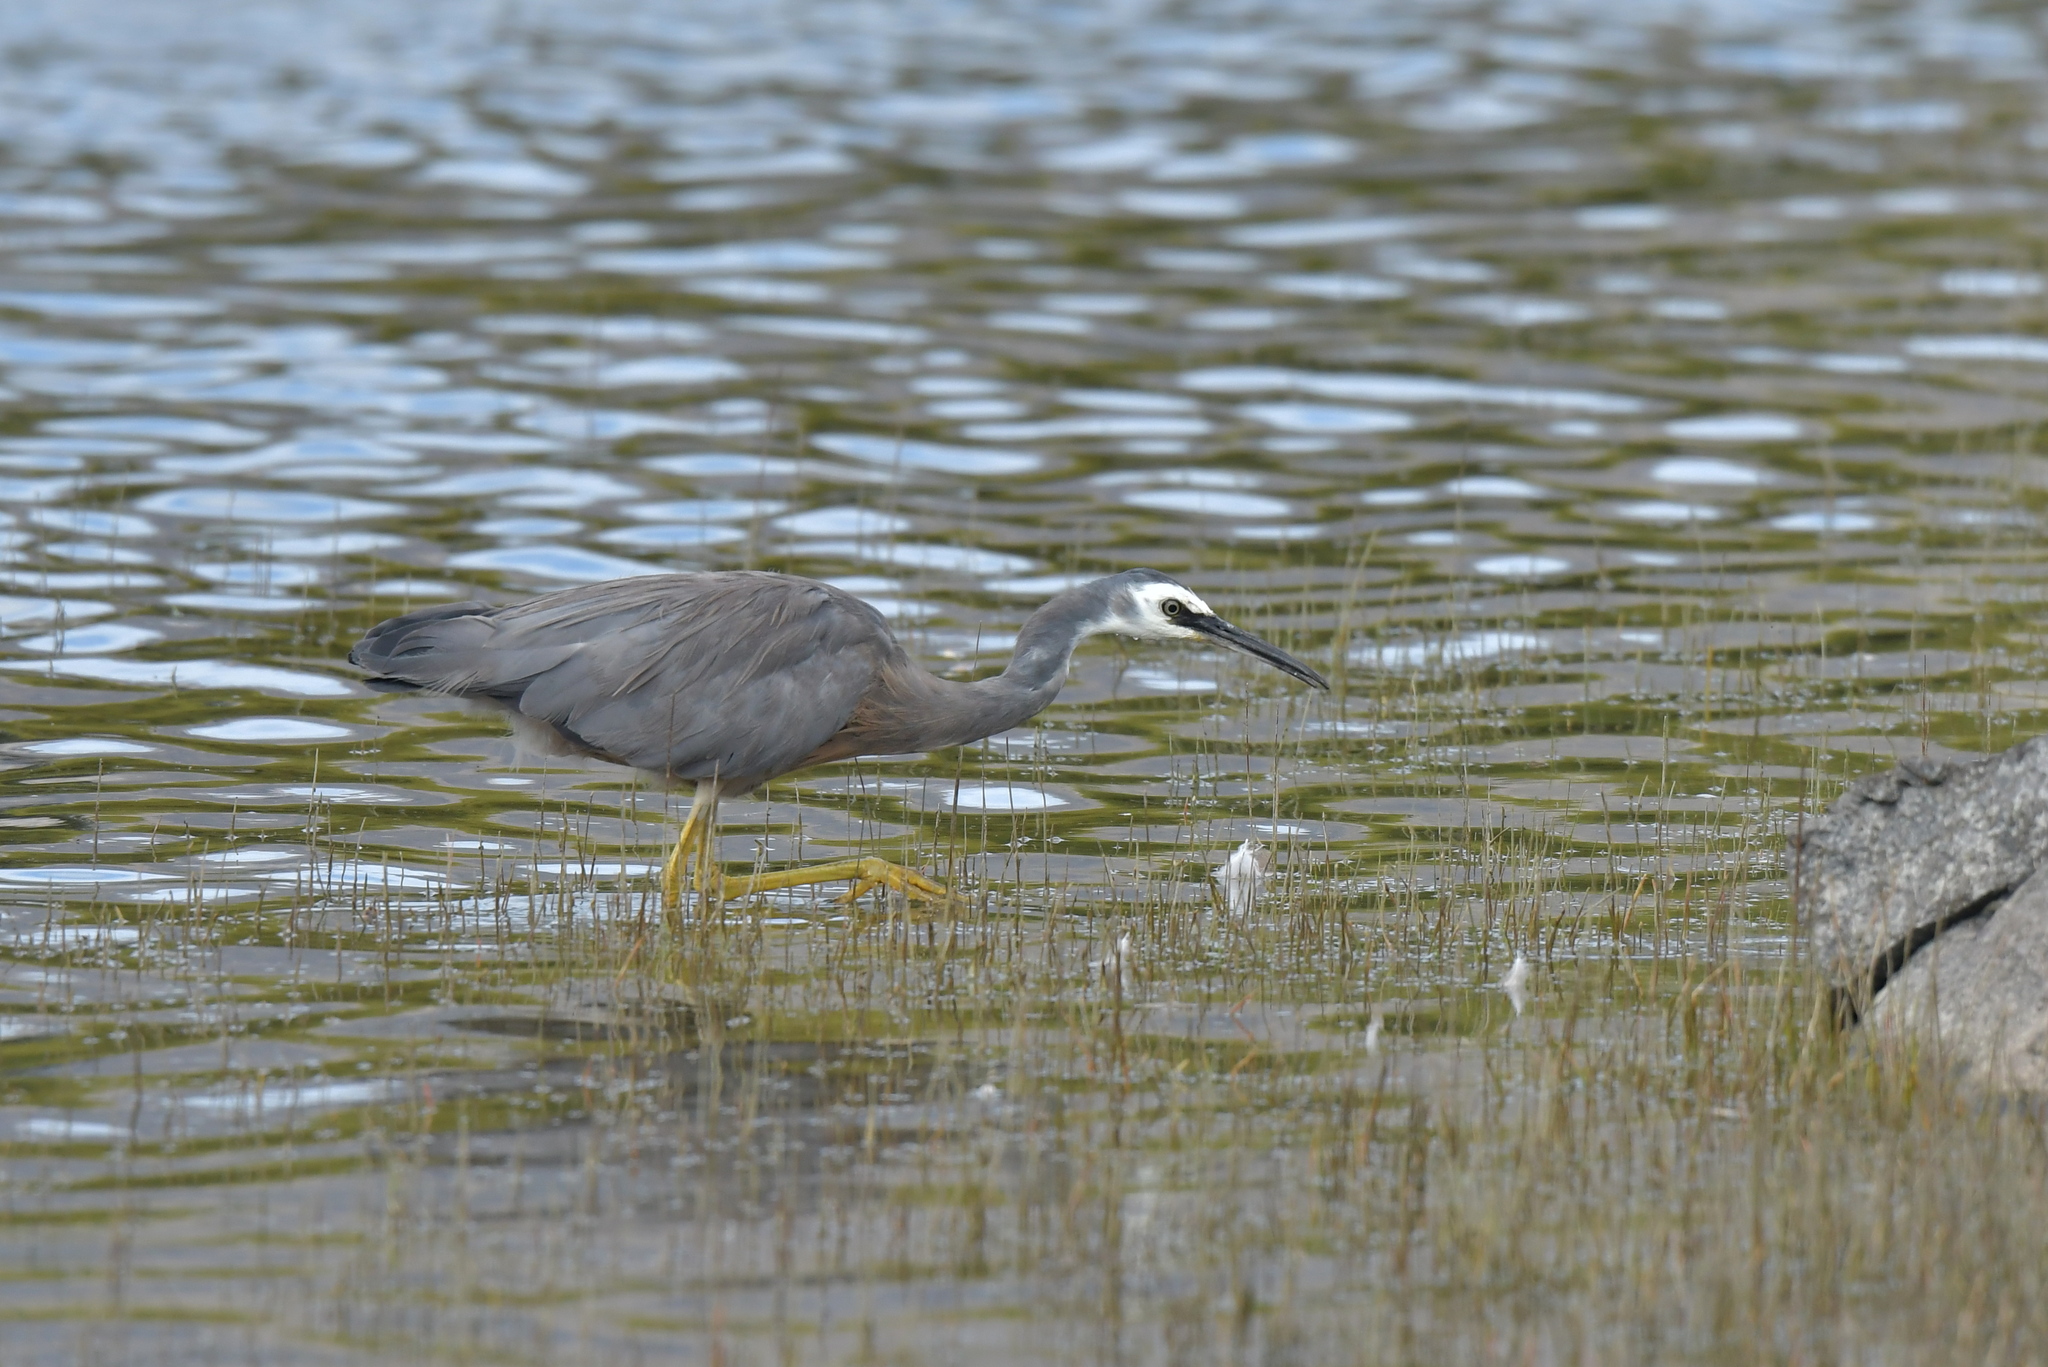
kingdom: Animalia
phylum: Chordata
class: Aves
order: Pelecaniformes
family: Ardeidae
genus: Egretta
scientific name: Egretta novaehollandiae
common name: White-faced heron
